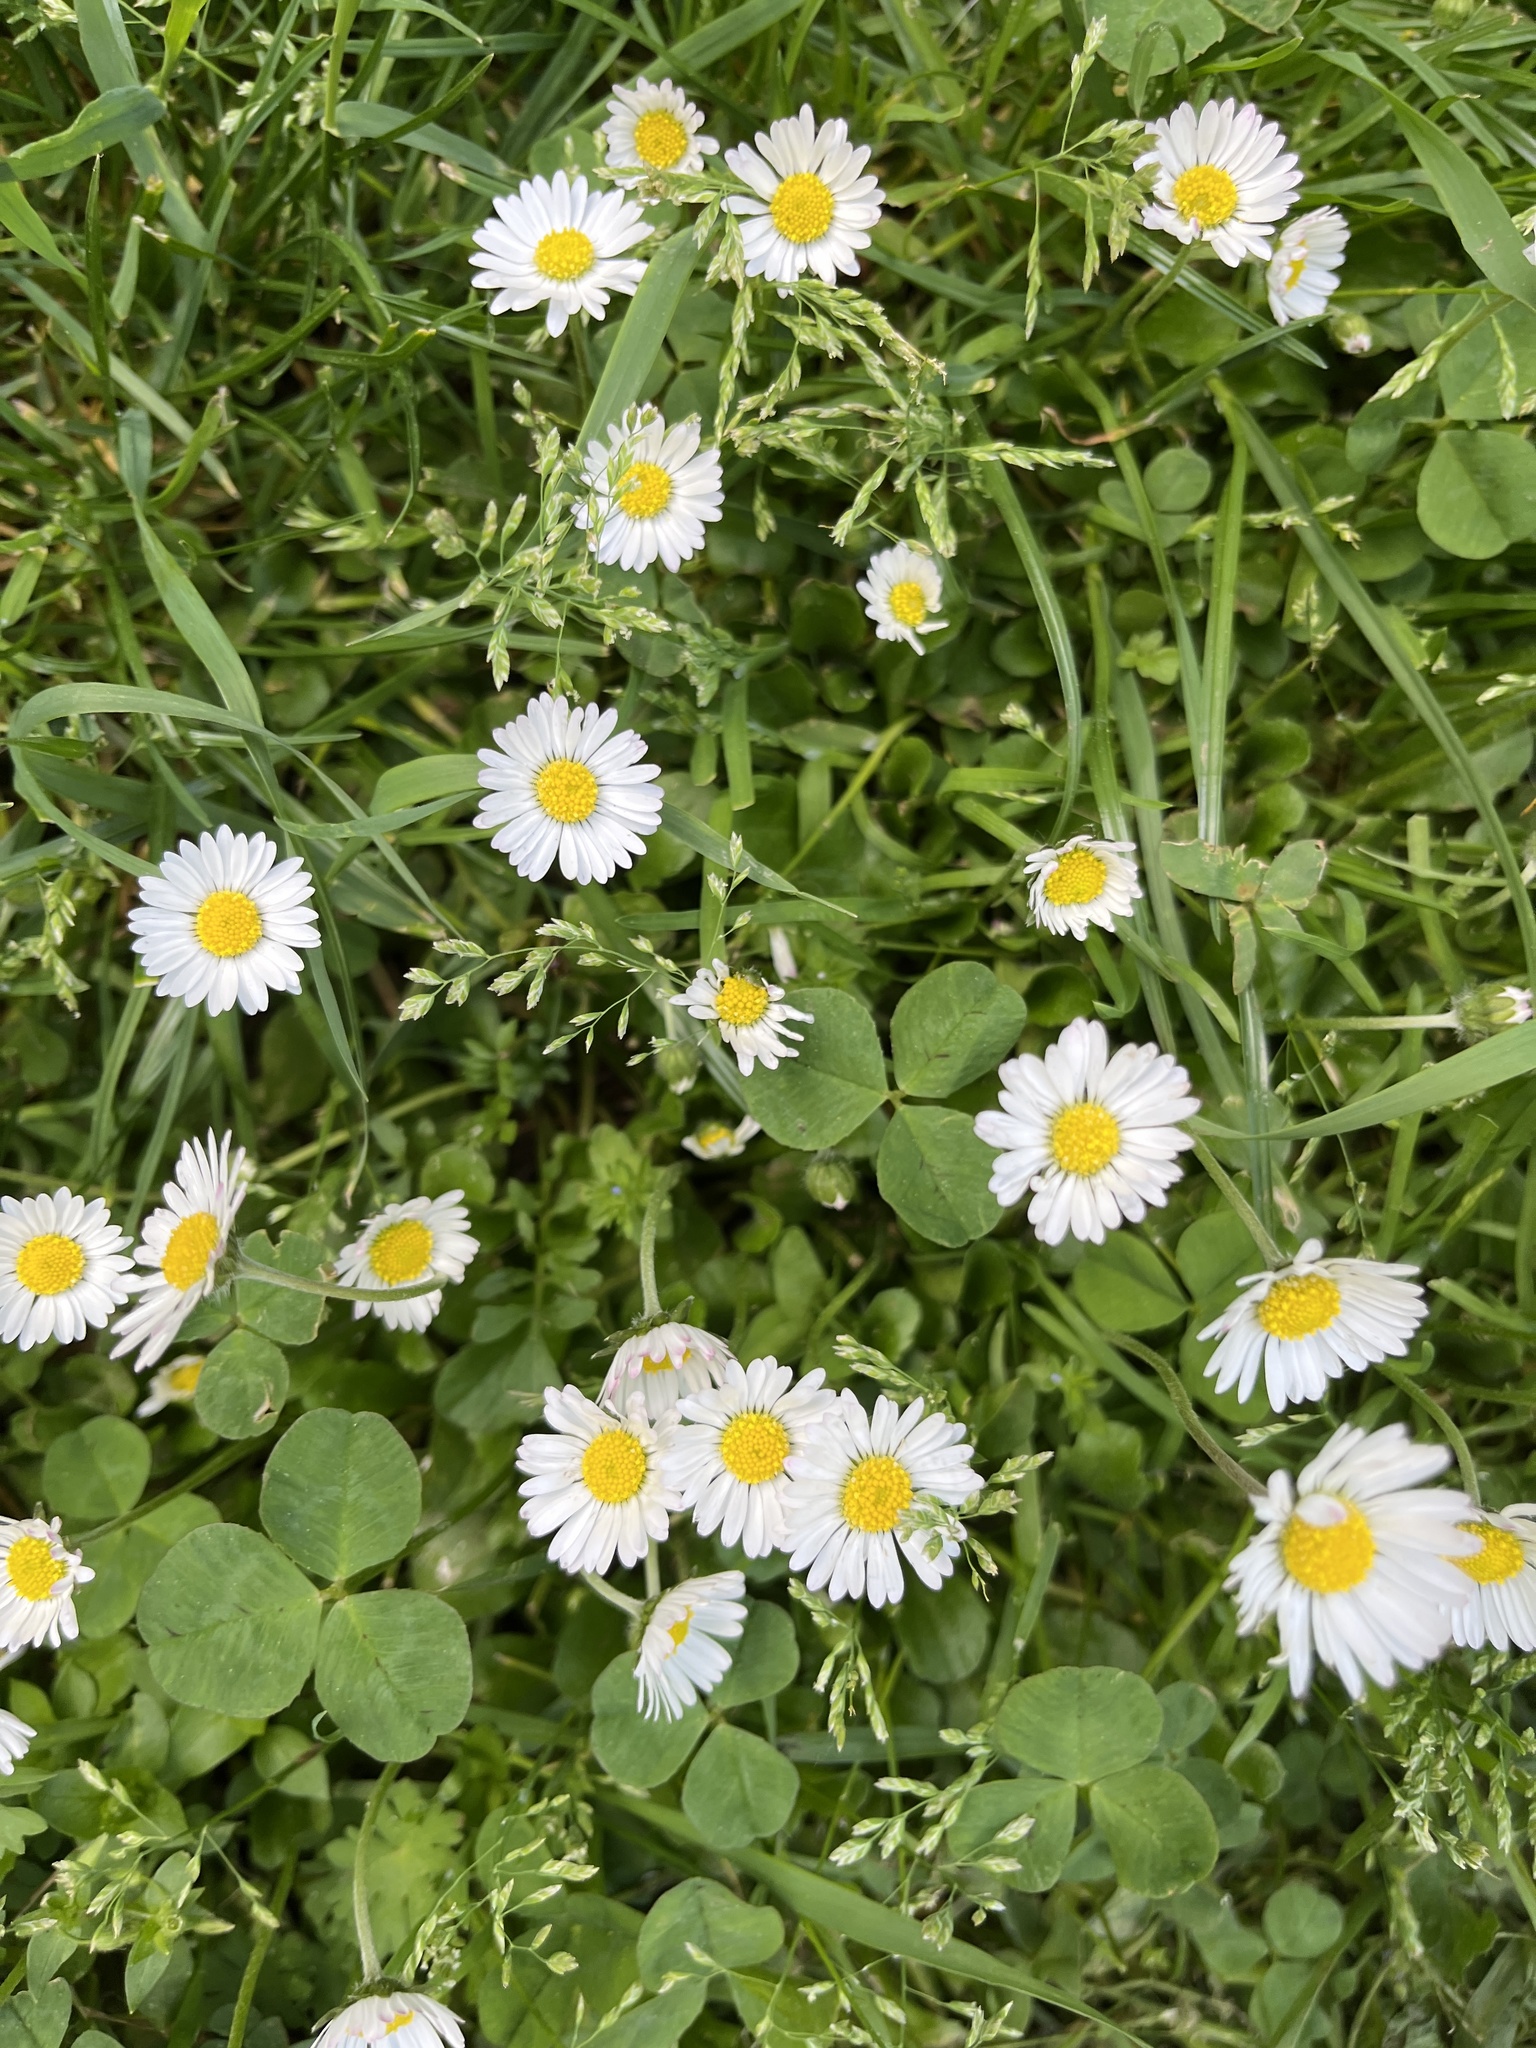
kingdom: Plantae
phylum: Tracheophyta
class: Magnoliopsida
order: Asterales
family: Asteraceae
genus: Bellis
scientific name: Bellis perennis
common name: Lawndaisy
